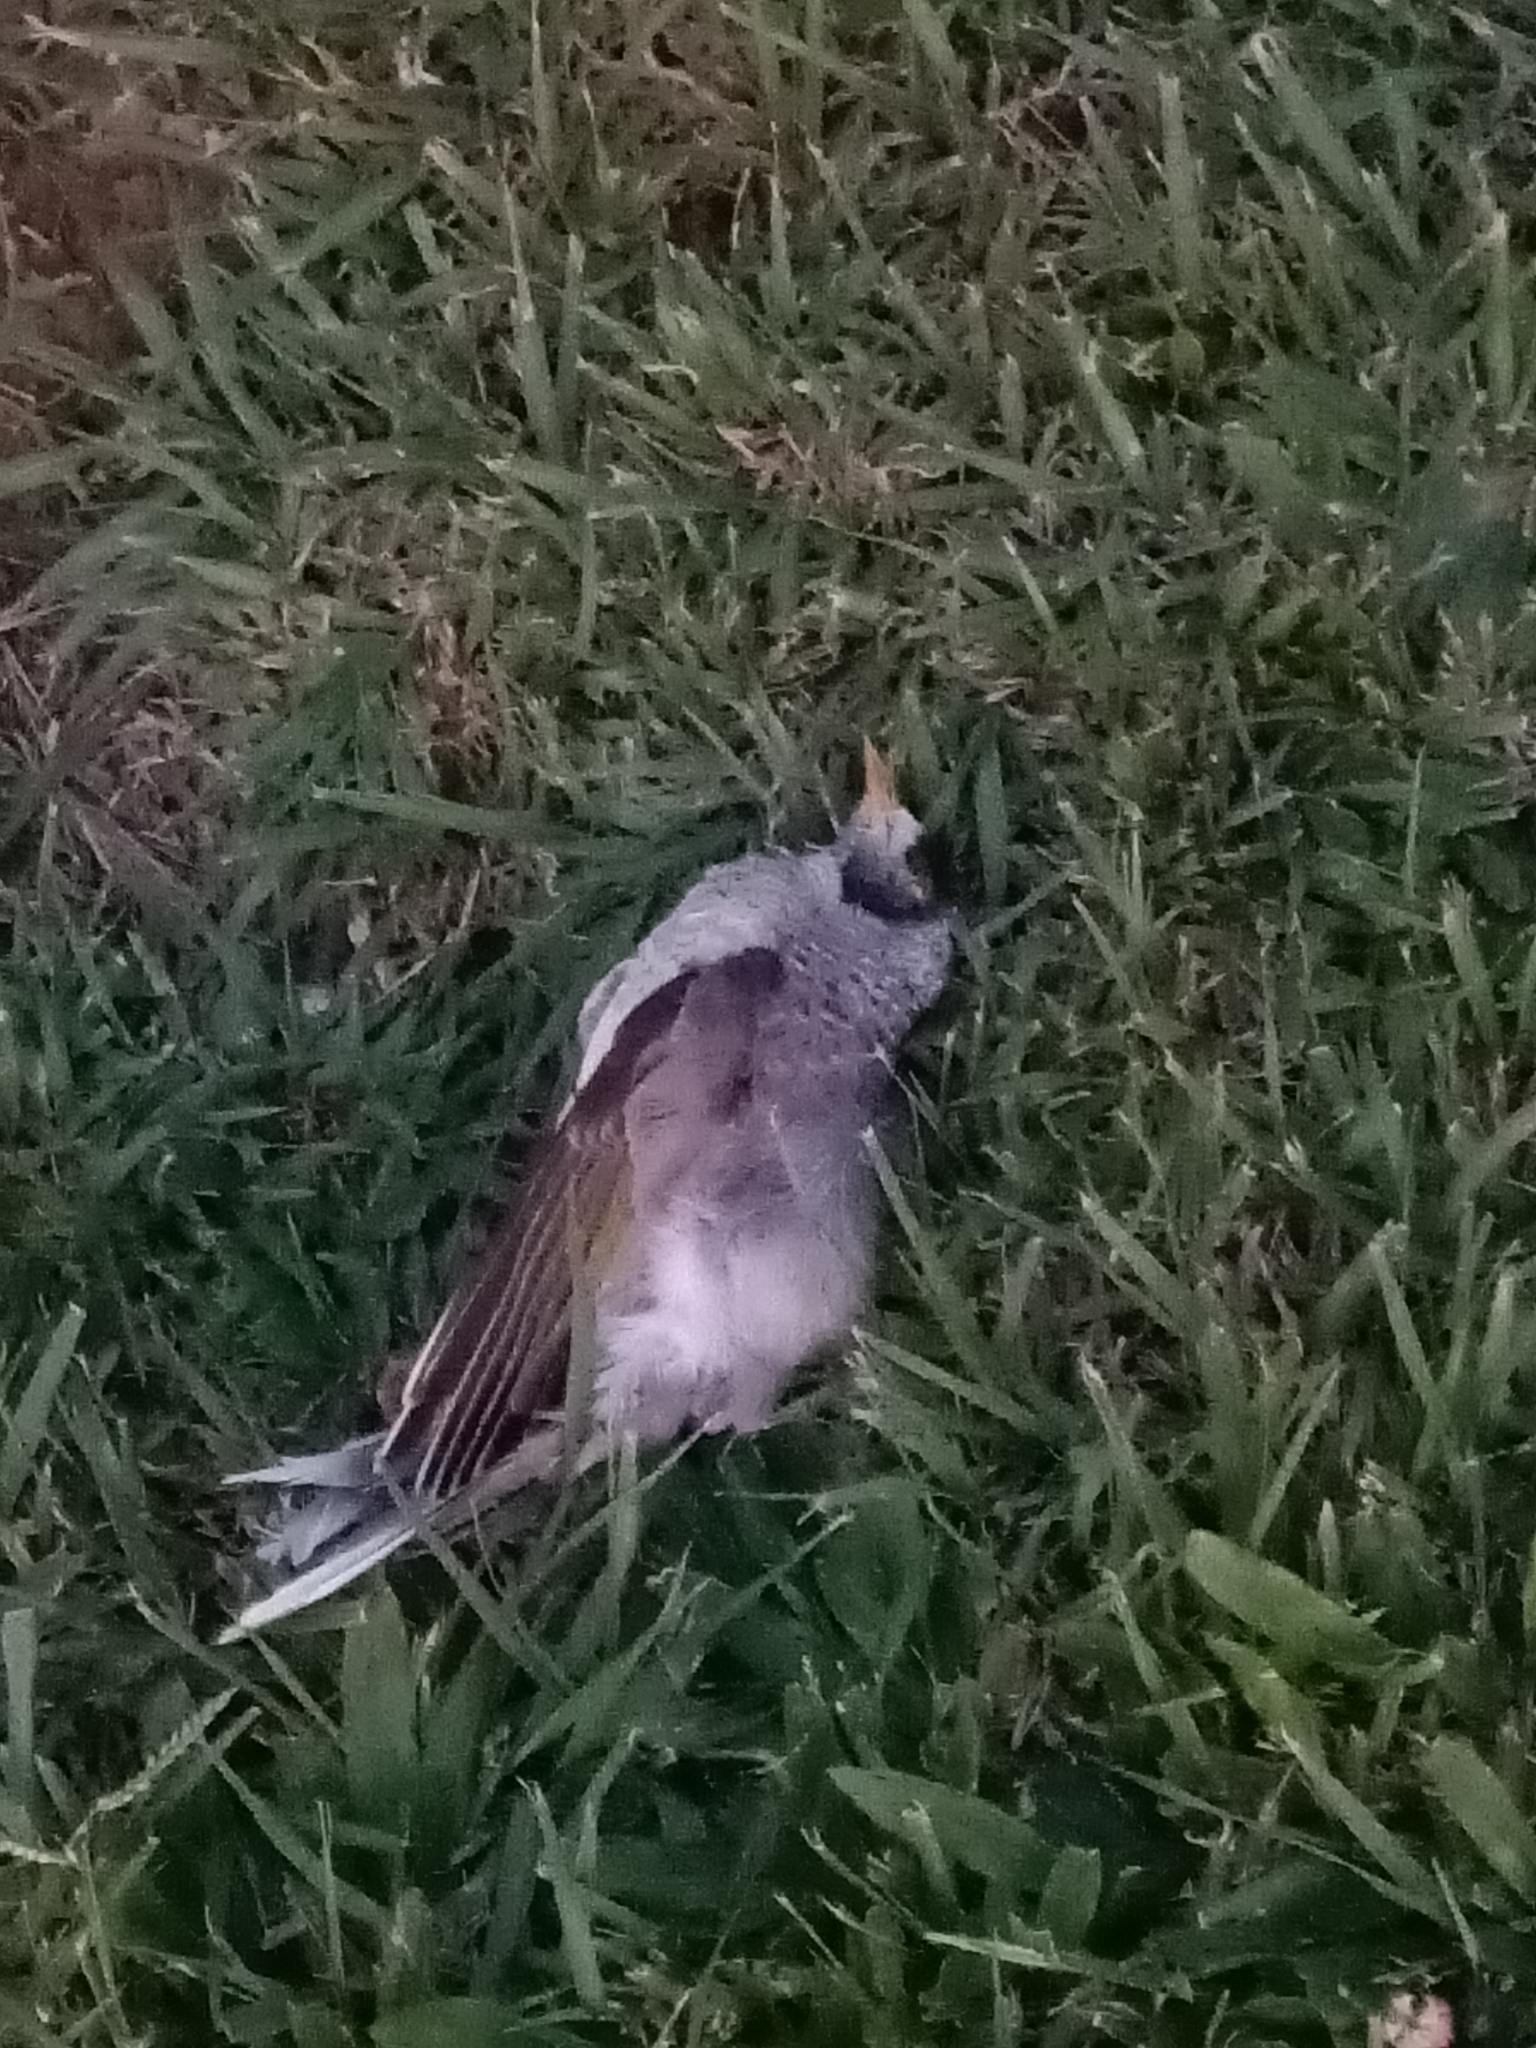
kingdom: Animalia
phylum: Chordata
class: Aves
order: Passeriformes
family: Meliphagidae
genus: Manorina
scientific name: Manorina melanocephala
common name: Noisy miner
